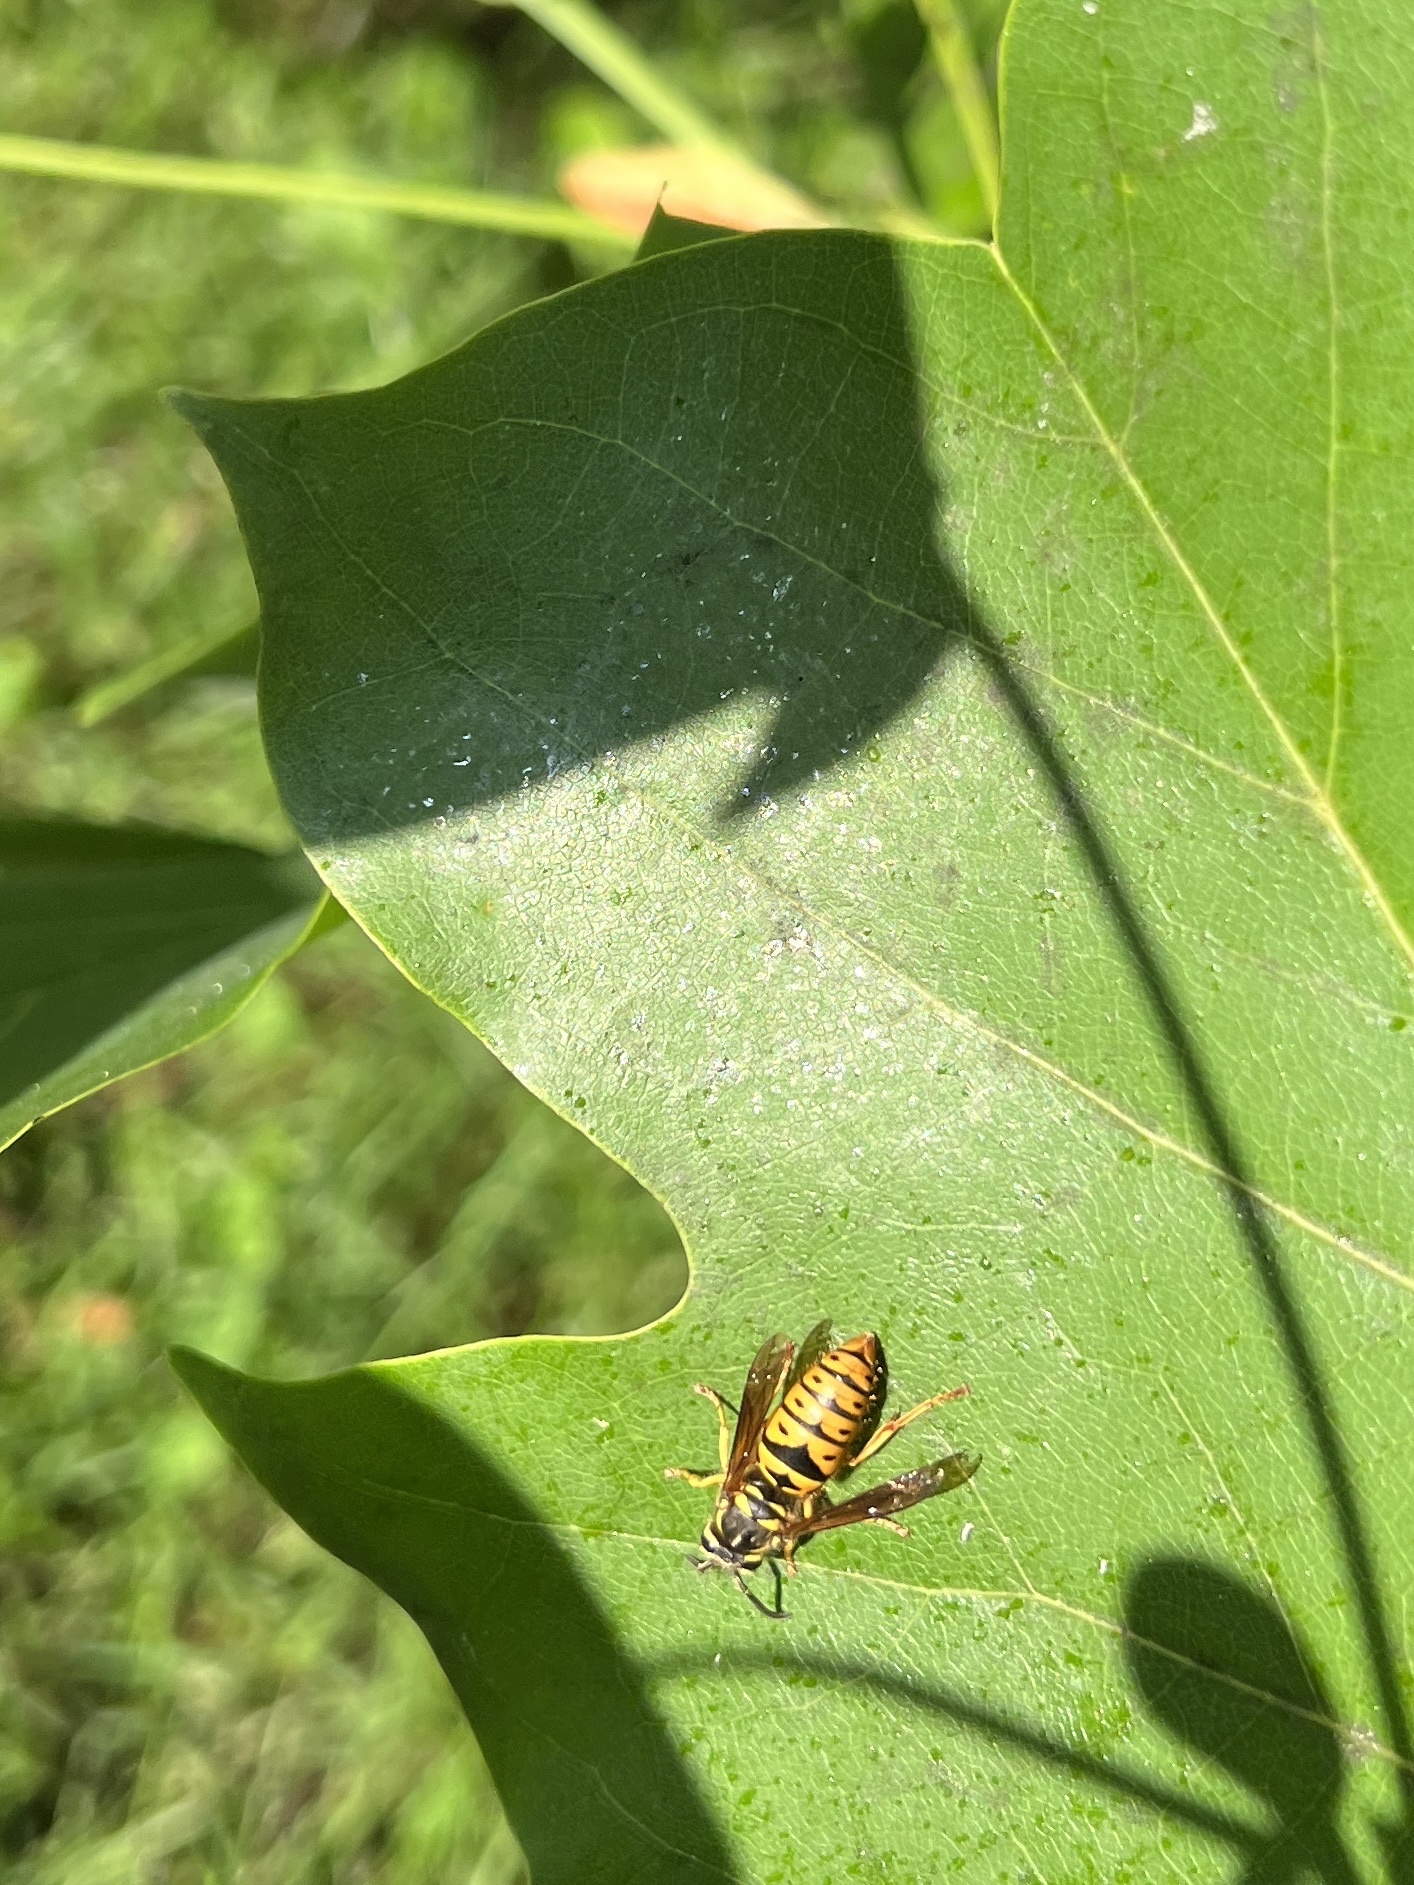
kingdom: Animalia
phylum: Arthropoda
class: Insecta
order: Hymenoptera
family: Vespidae
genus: Vespula
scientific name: Vespula maculifrons
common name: Eastern yellowjacket
